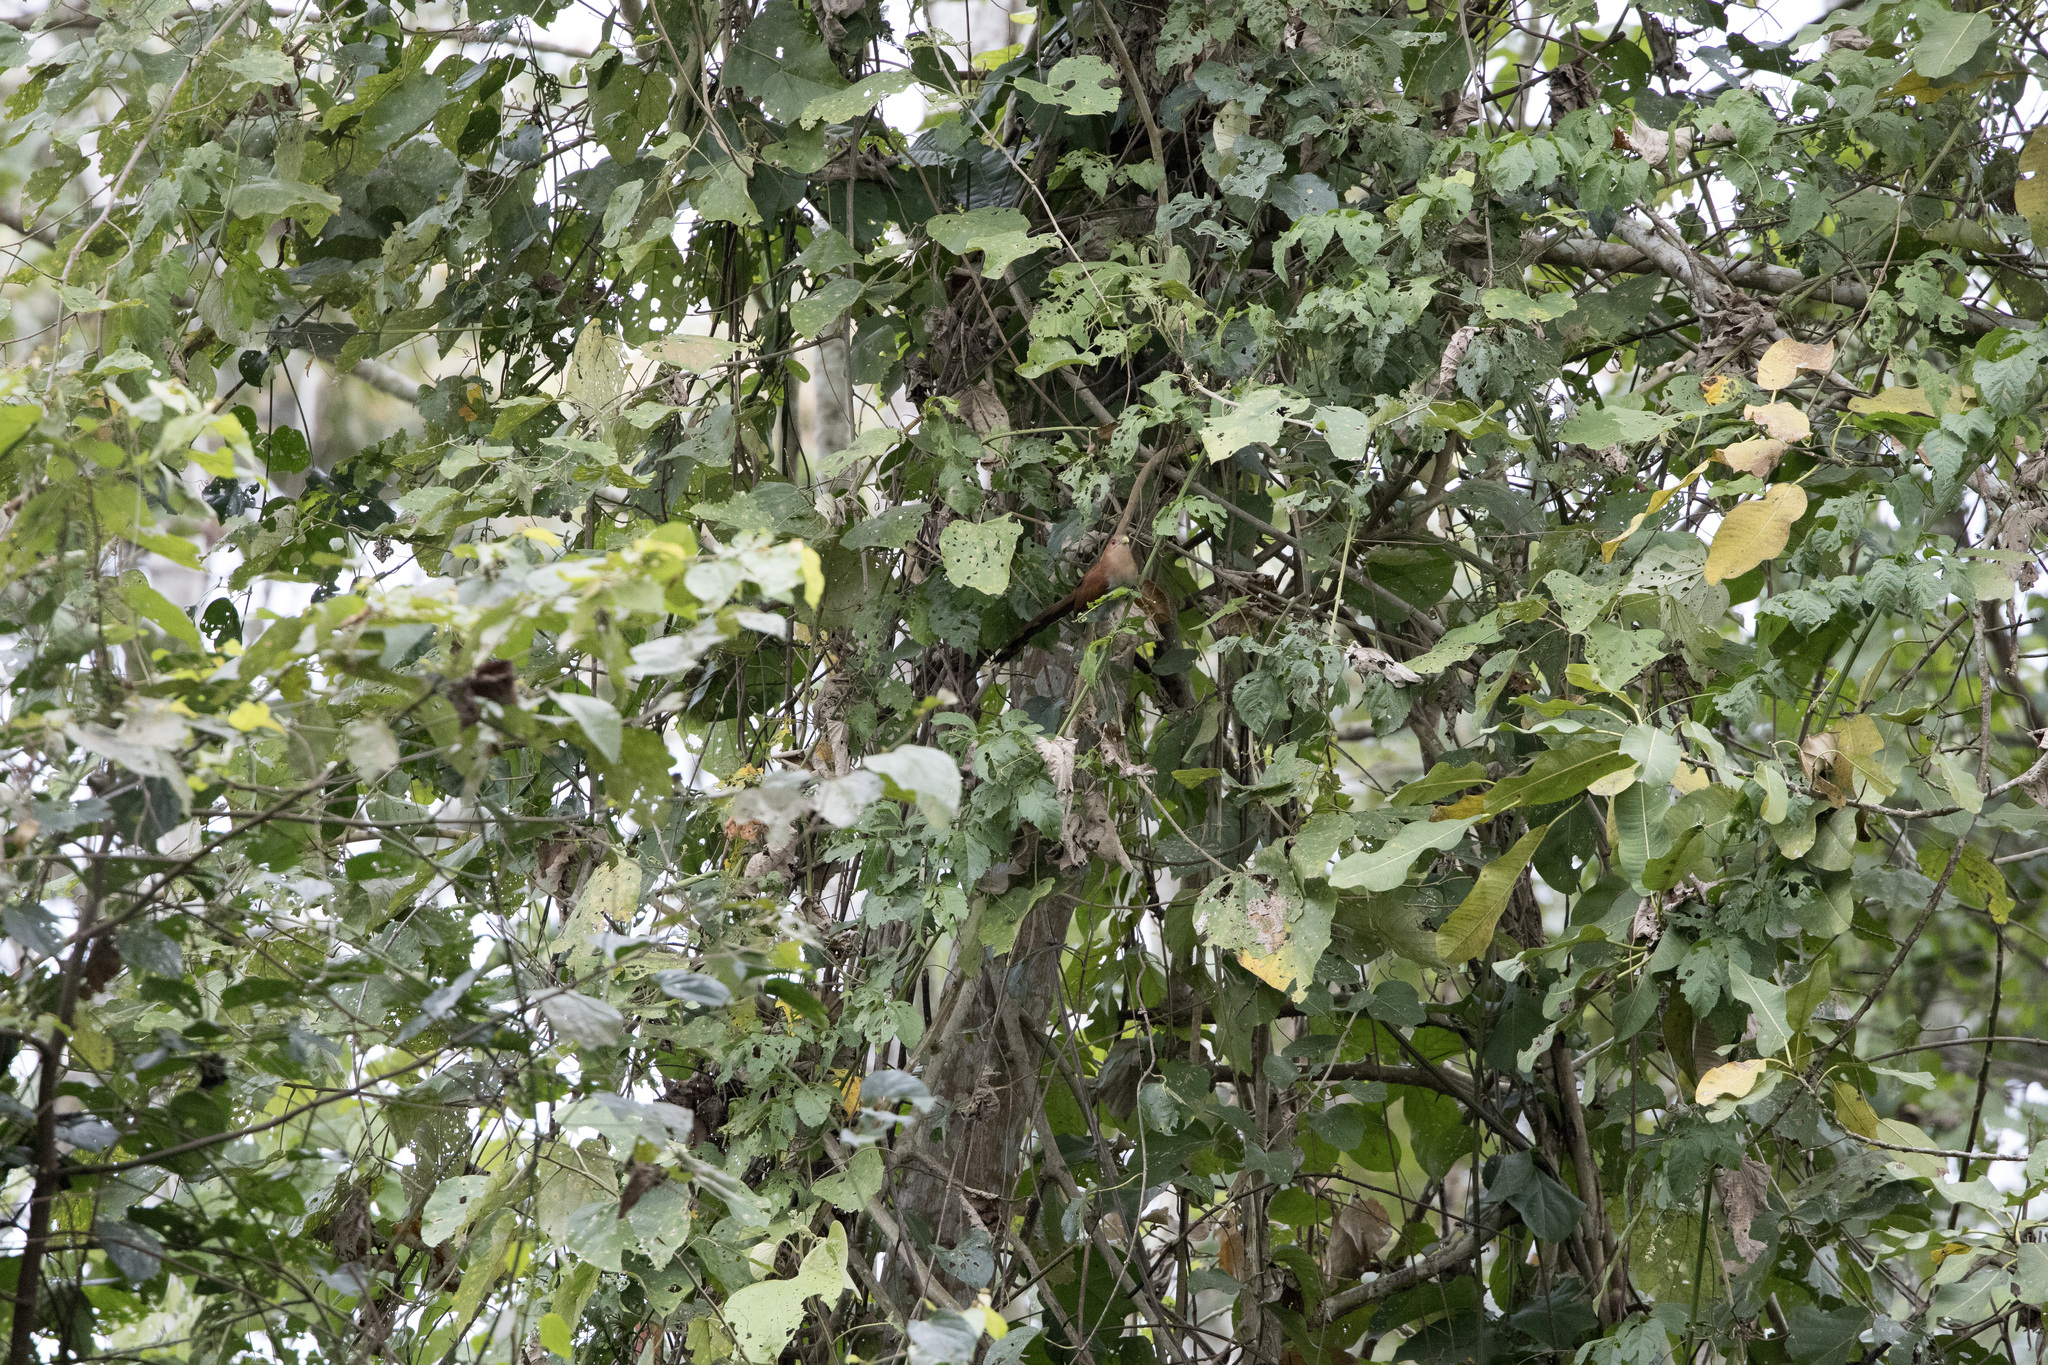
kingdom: Animalia
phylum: Chordata
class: Aves
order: Cuculiformes
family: Cuculidae
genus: Piaya
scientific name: Piaya cayana
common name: Squirrel cuckoo
